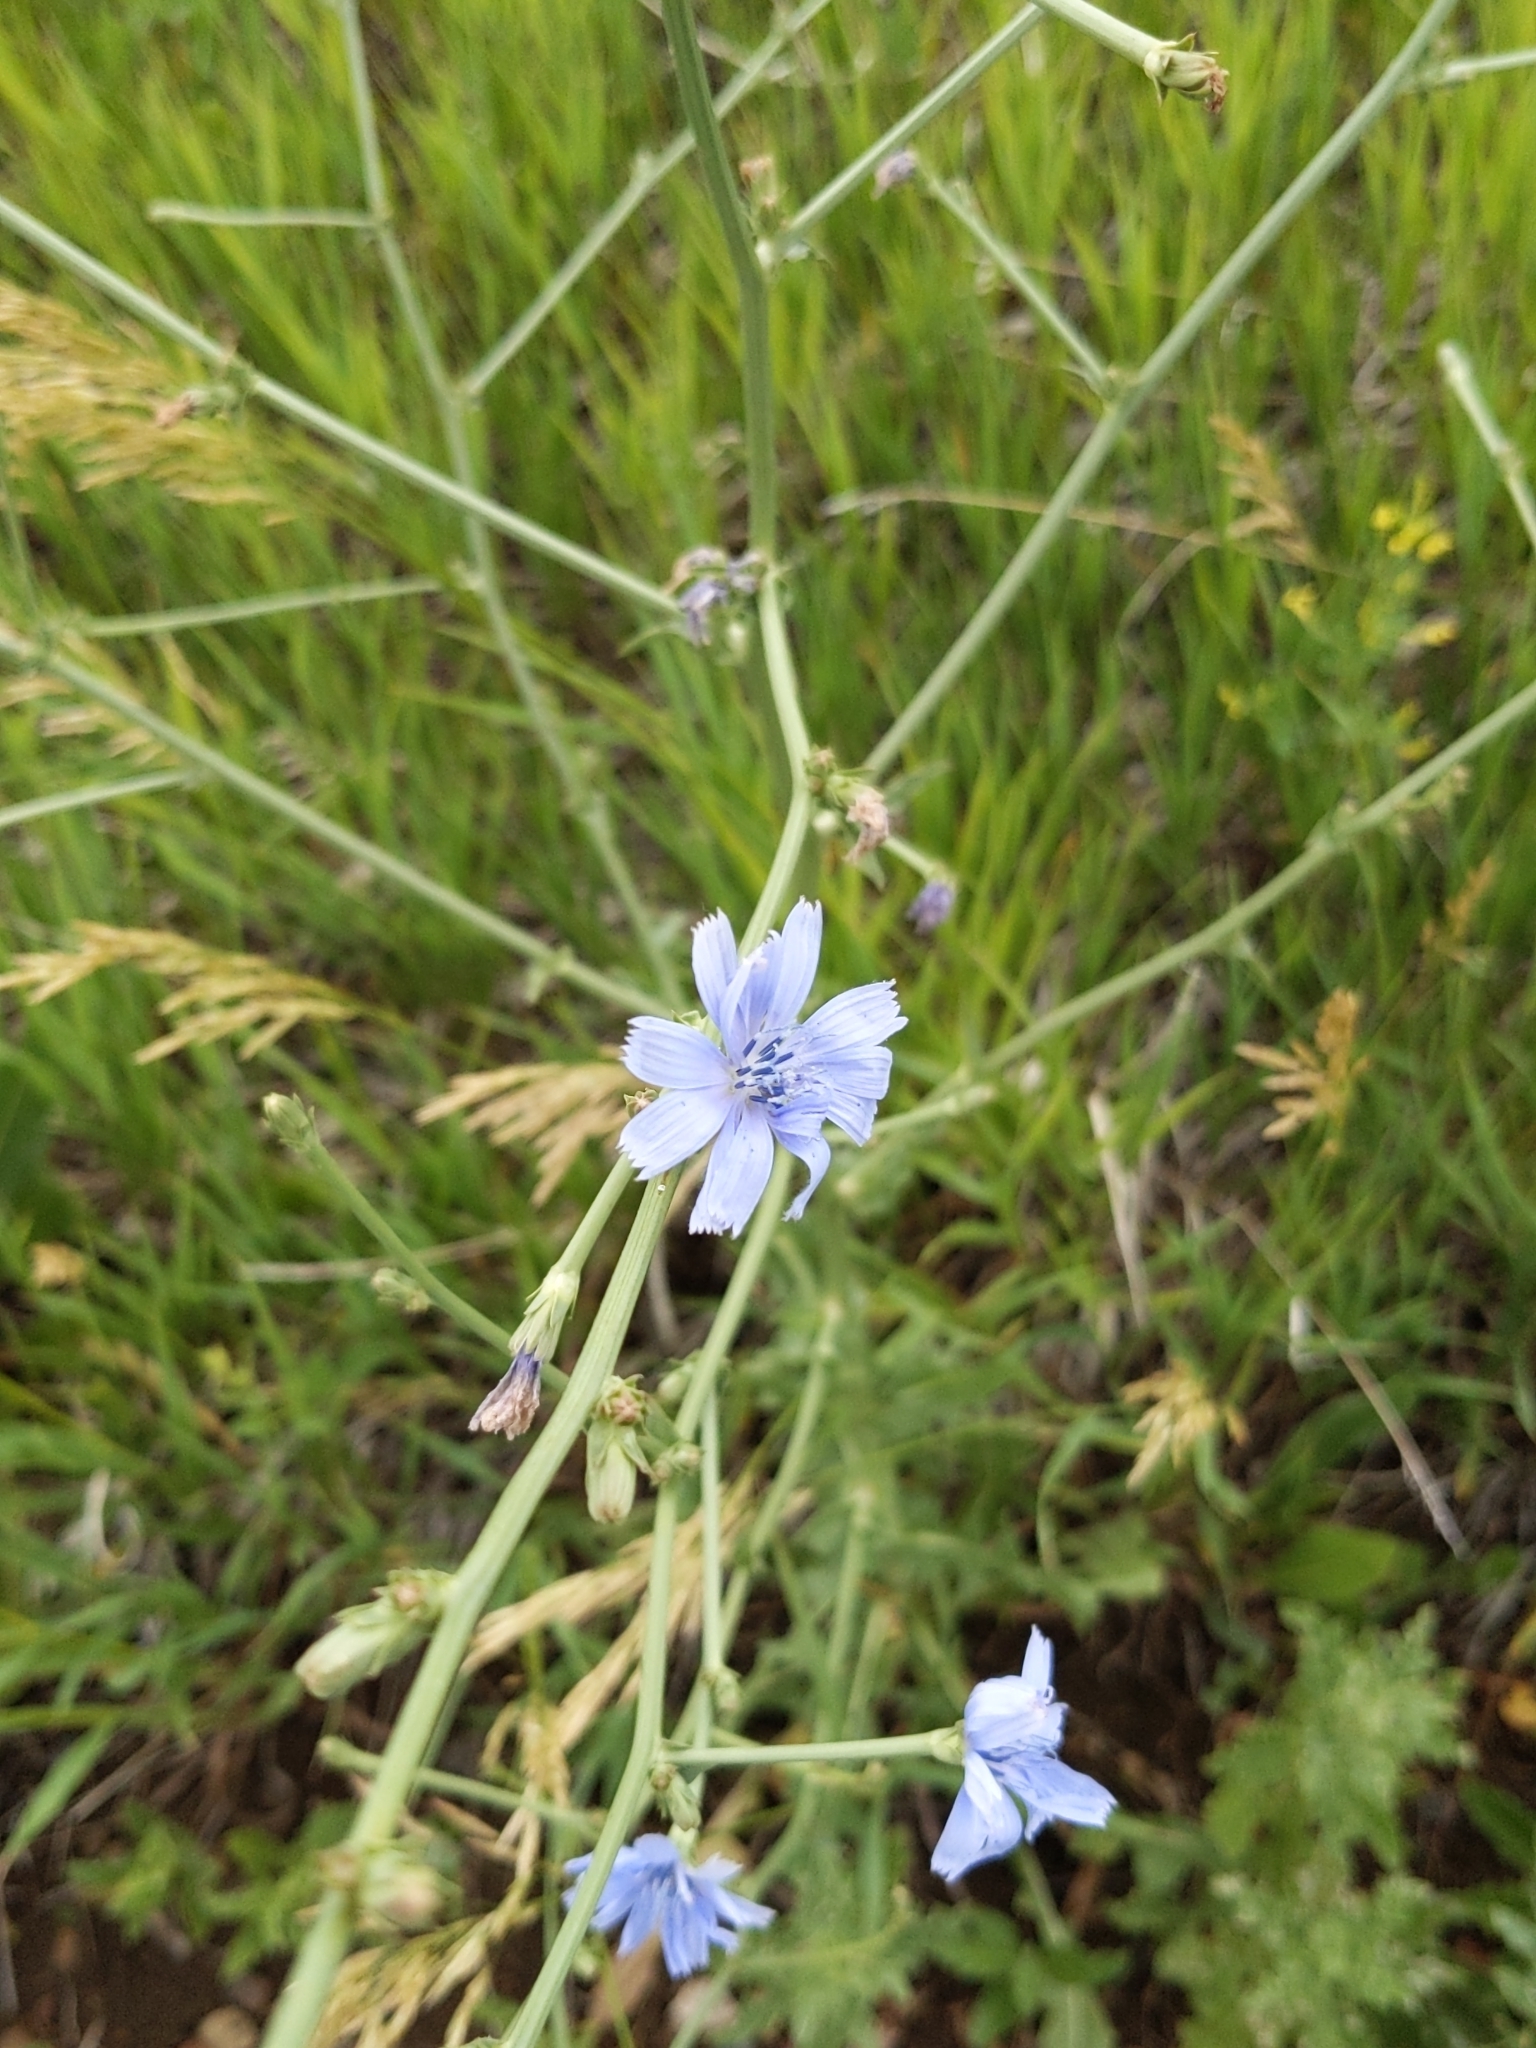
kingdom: Plantae
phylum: Tracheophyta
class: Magnoliopsida
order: Asterales
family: Asteraceae
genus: Cichorium
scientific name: Cichorium intybus
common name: Chicory
